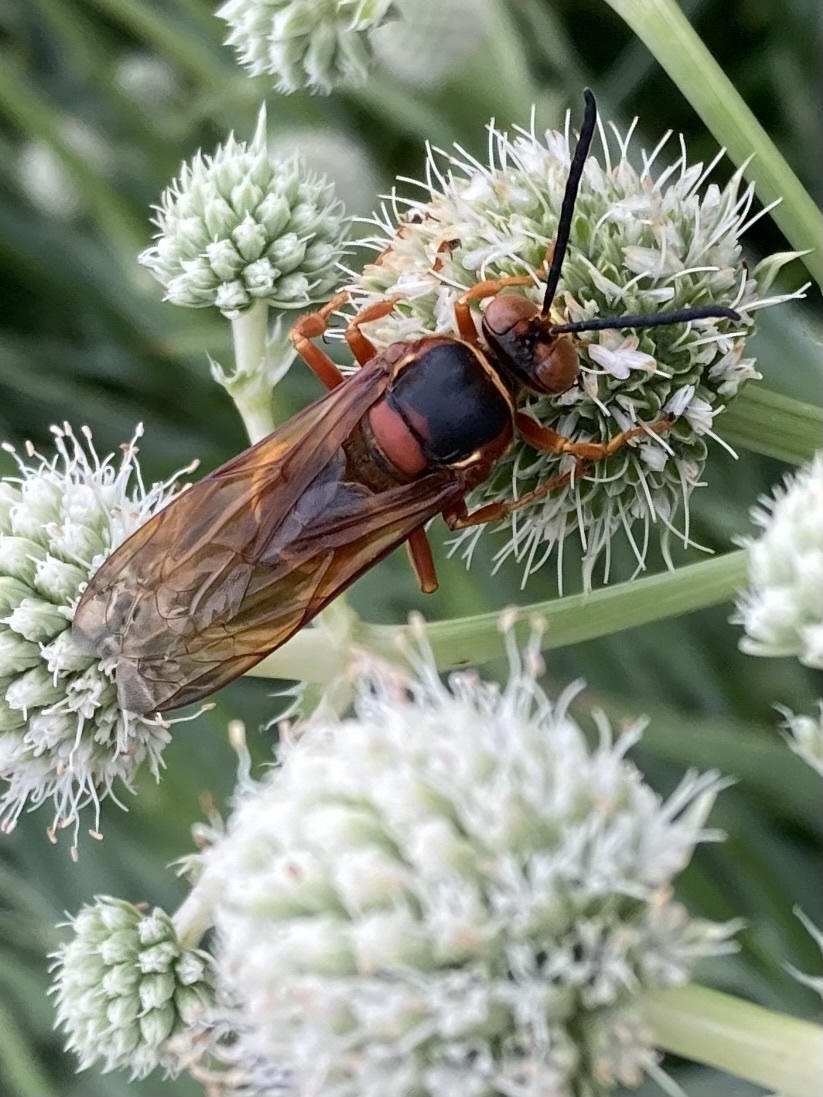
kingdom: Animalia
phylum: Arthropoda
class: Insecta
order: Hymenoptera
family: Crabronidae
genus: Sphecius
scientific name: Sphecius speciosus
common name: Cicada killer
